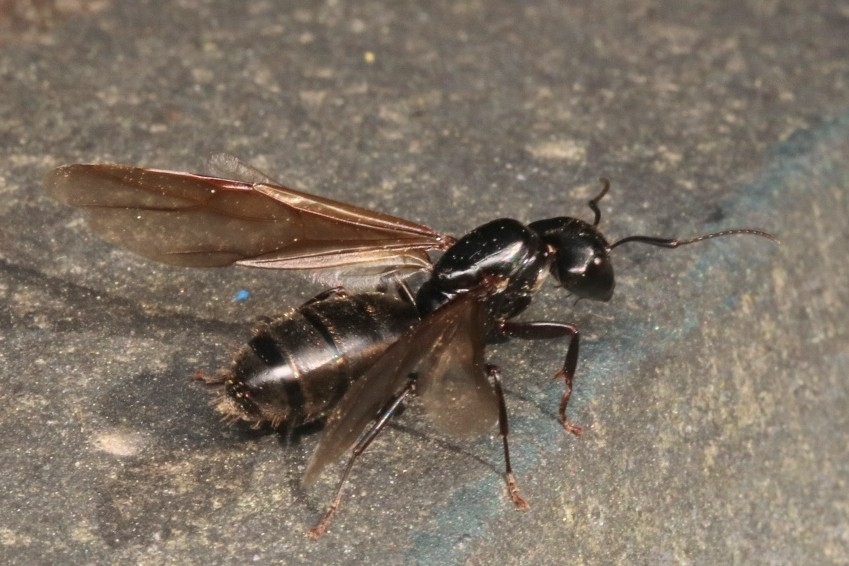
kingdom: Animalia
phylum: Arthropoda
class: Insecta
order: Hymenoptera
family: Formicidae
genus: Camponotus
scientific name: Camponotus pennsylvanicus
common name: Black carpenter ant
